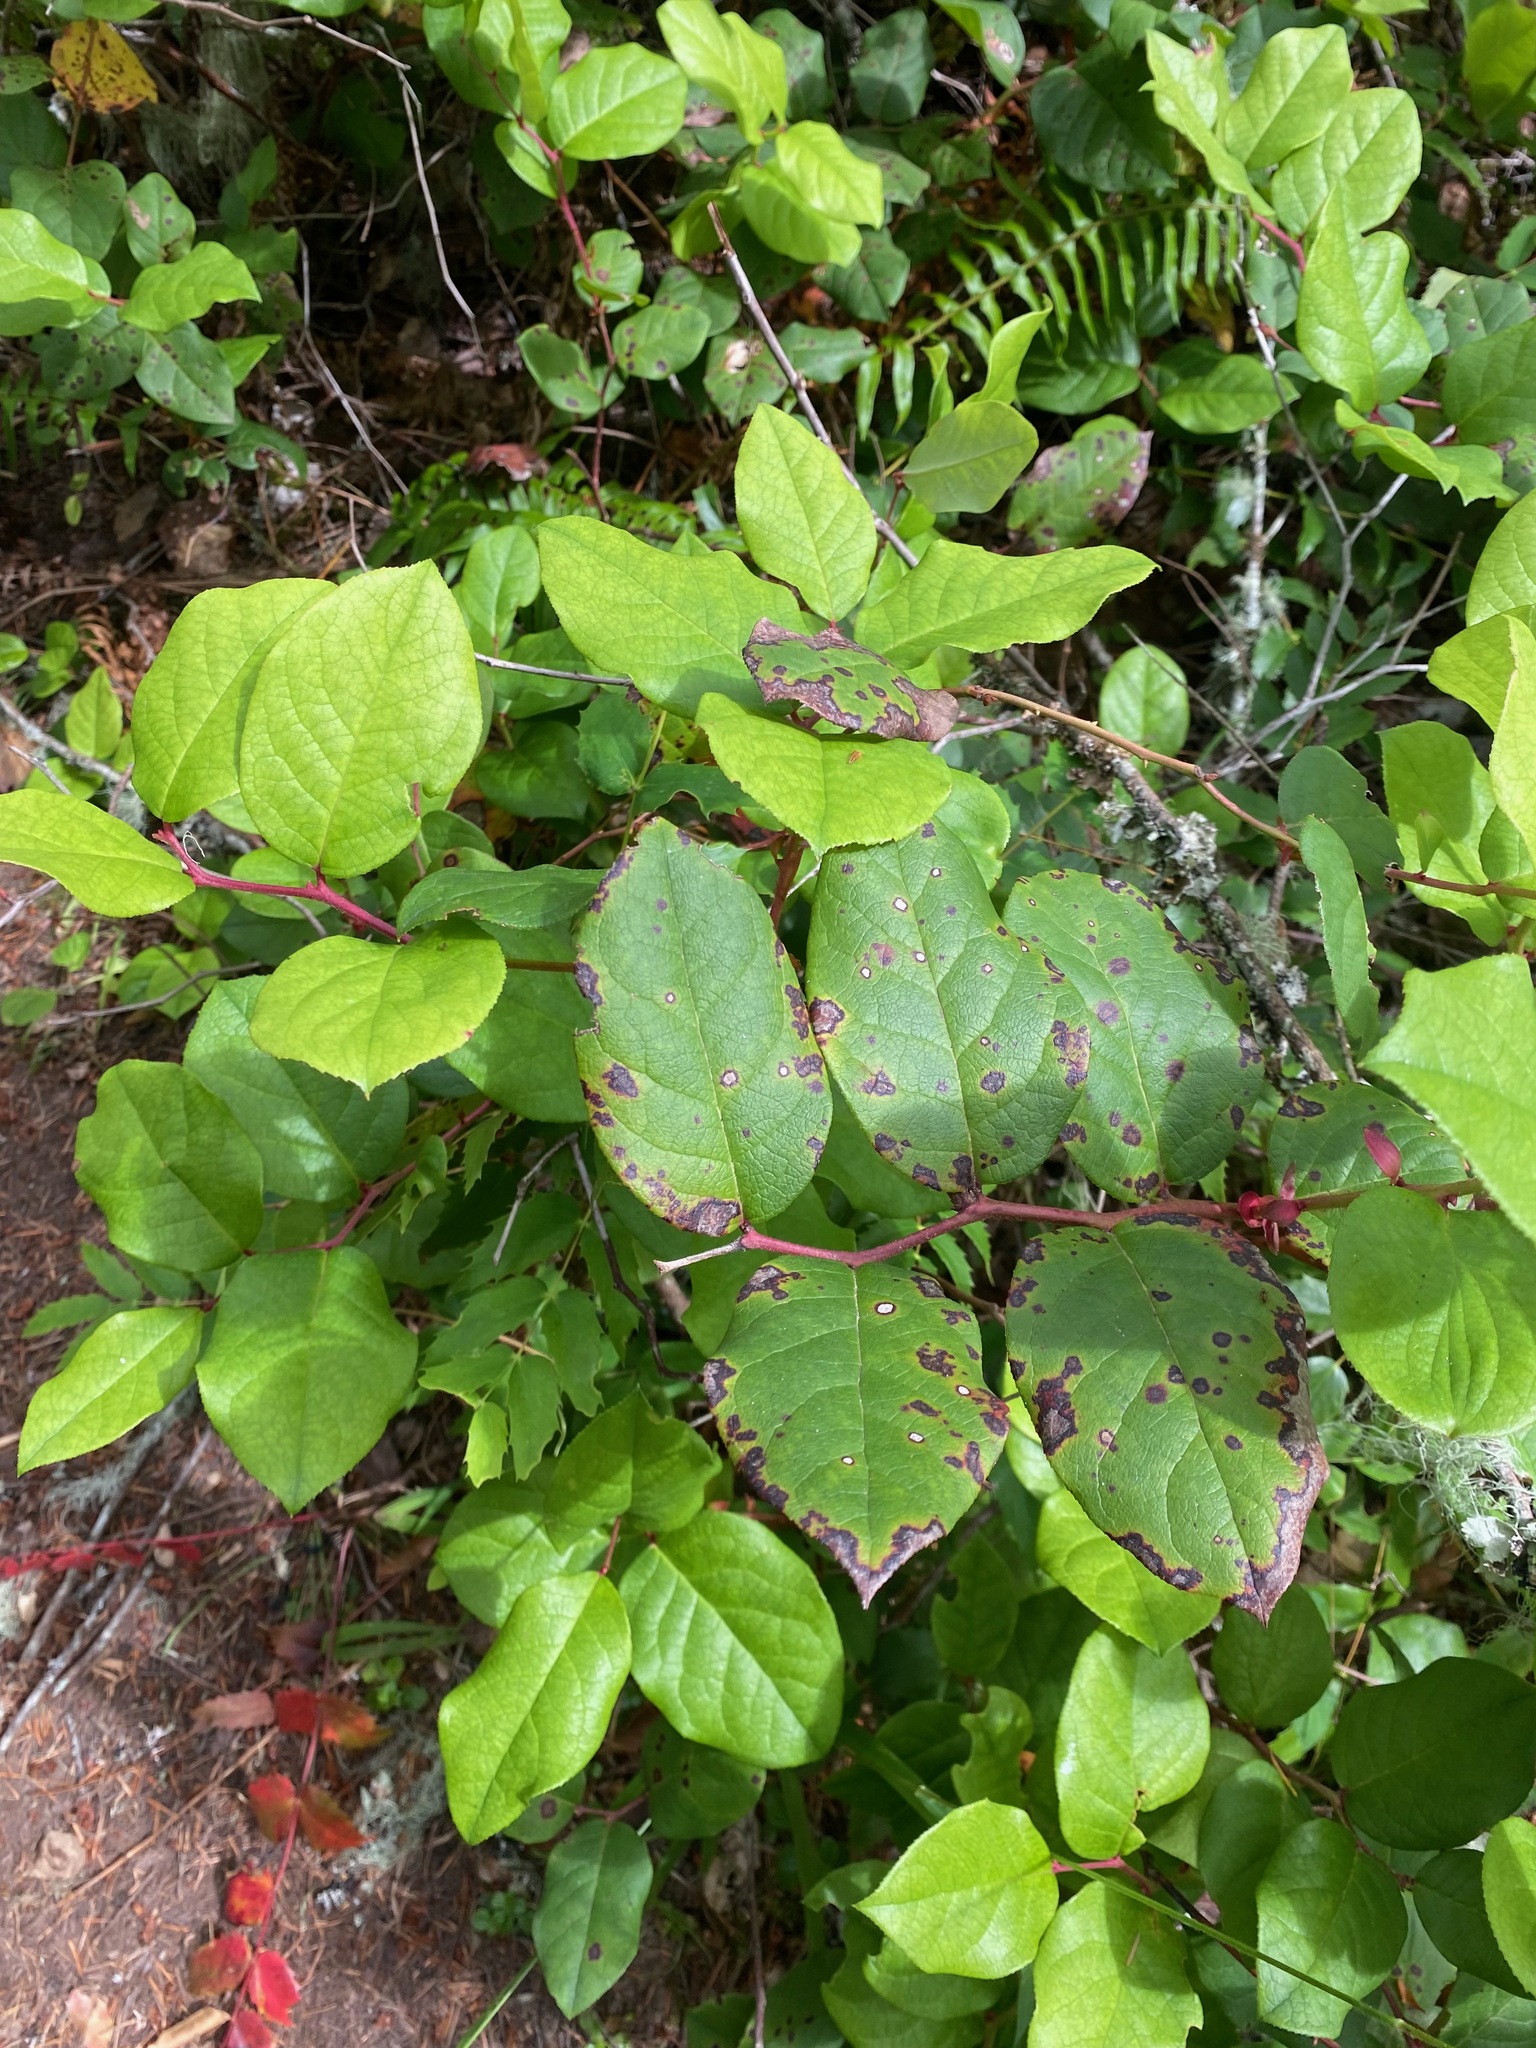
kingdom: Plantae
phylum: Tracheophyta
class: Magnoliopsida
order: Ericales
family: Ericaceae
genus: Gaultheria
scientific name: Gaultheria shallon
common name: Shallon
